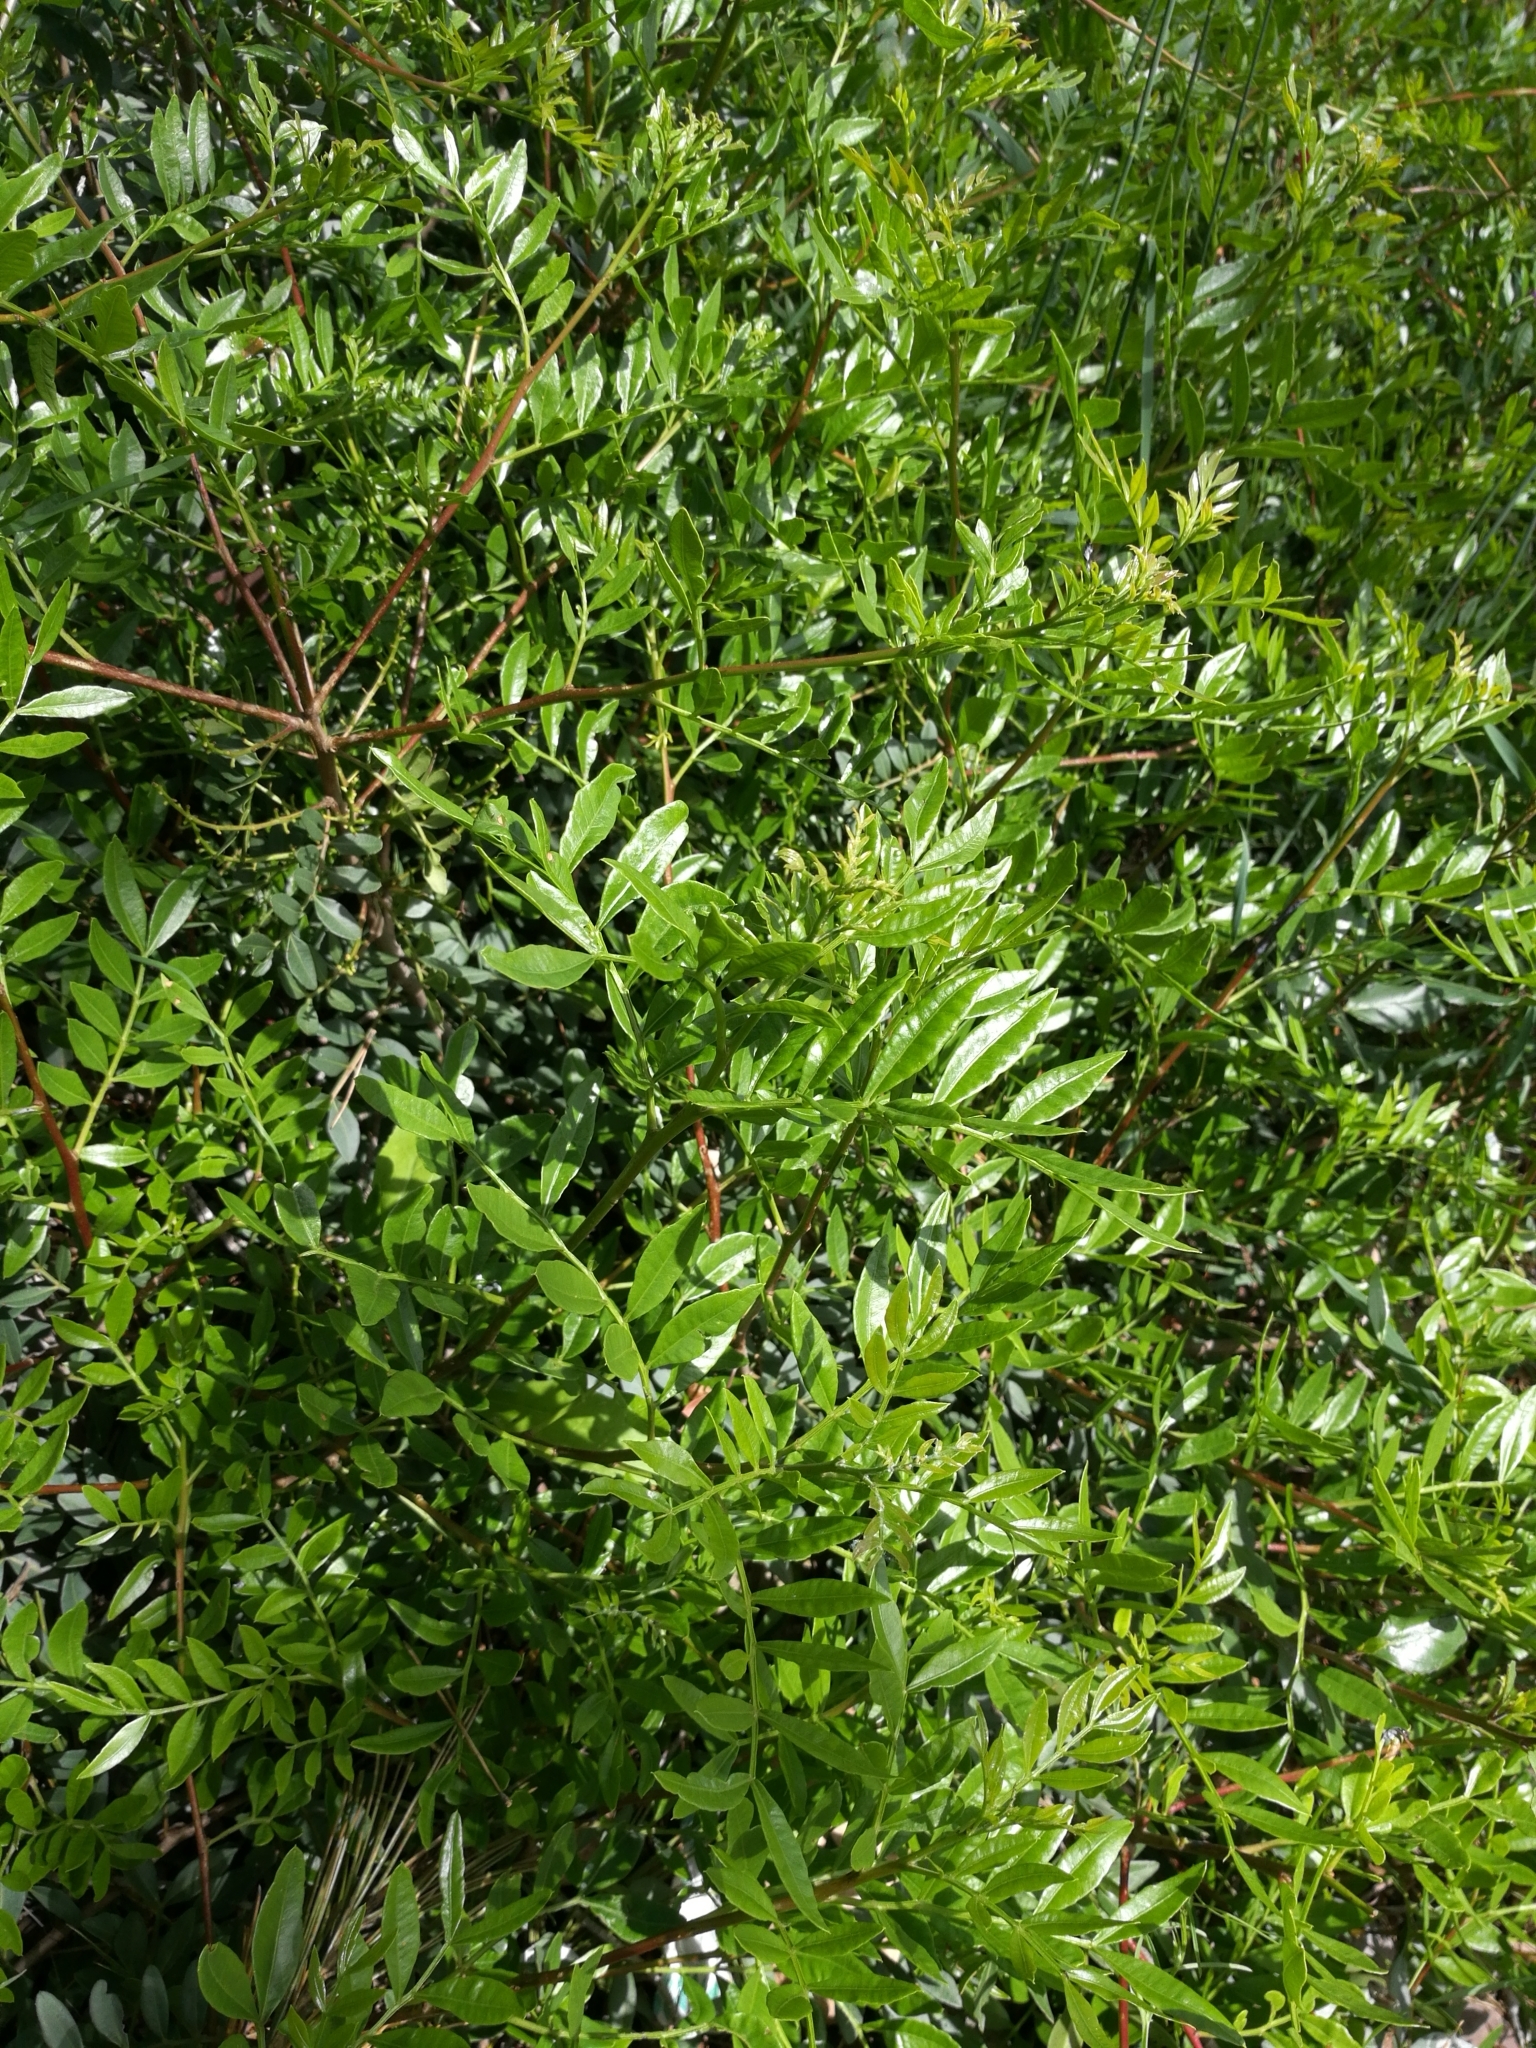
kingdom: Plantae
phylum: Tracheophyta
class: Magnoliopsida
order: Sapindales
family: Anacardiaceae
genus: Pistacia
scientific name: Pistacia lentiscus
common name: Lentisk
